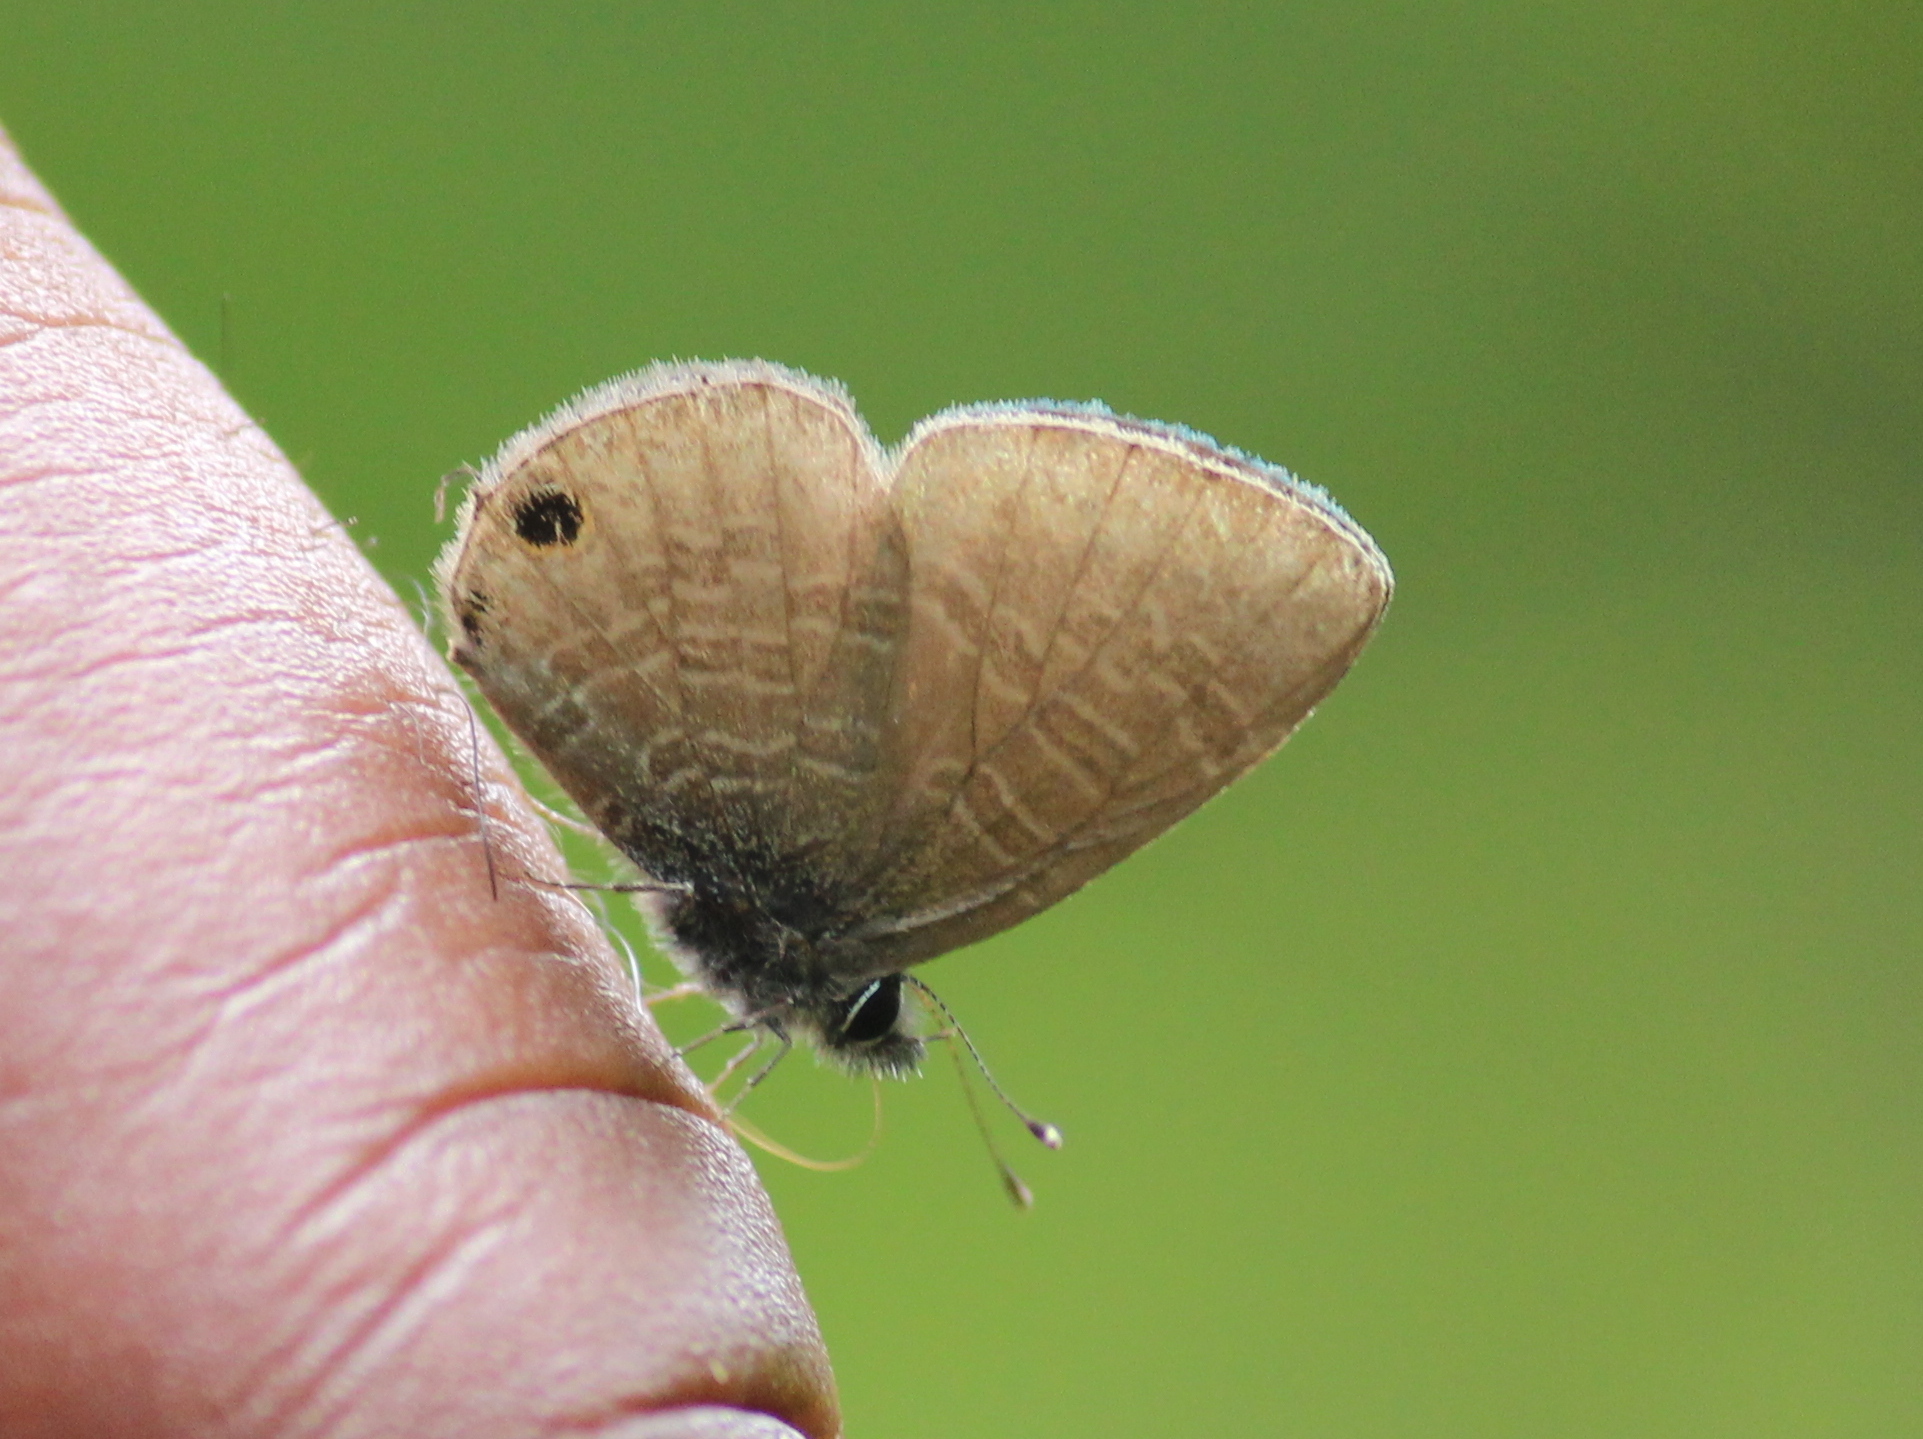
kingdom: Animalia
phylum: Arthropoda
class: Insecta
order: Lepidoptera
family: Lycaenidae
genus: Prosotas
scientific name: Prosotas nora
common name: Common line blue
